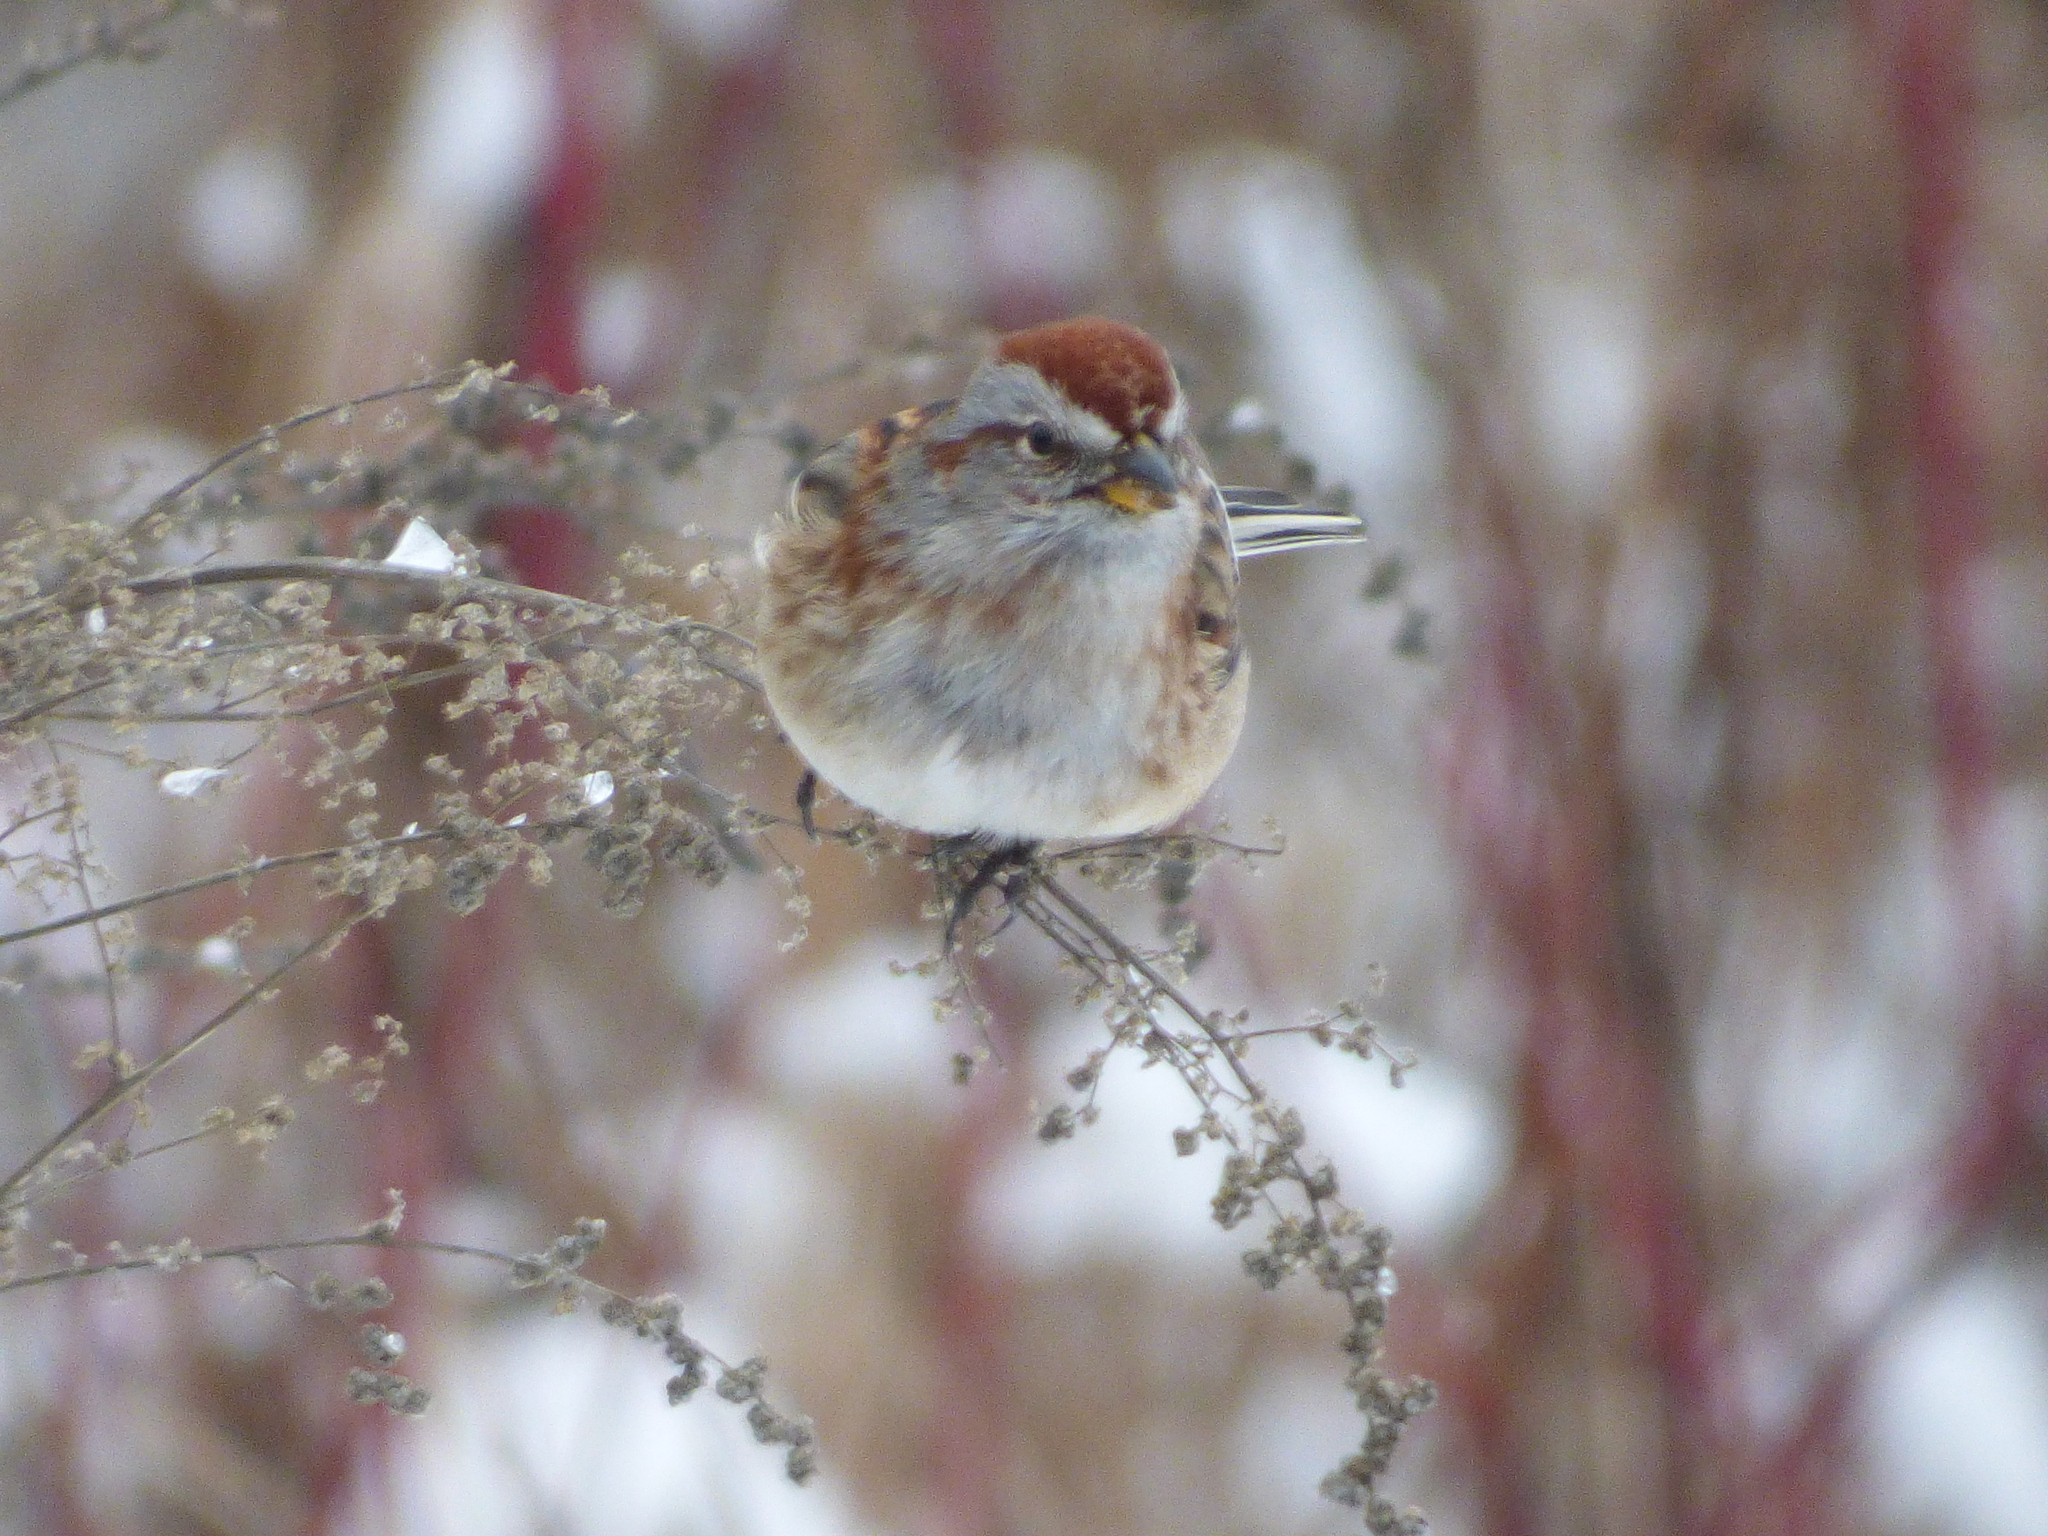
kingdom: Animalia
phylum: Chordata
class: Aves
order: Passeriformes
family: Passerellidae
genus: Spizelloides
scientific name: Spizelloides arborea
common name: American tree sparrow
